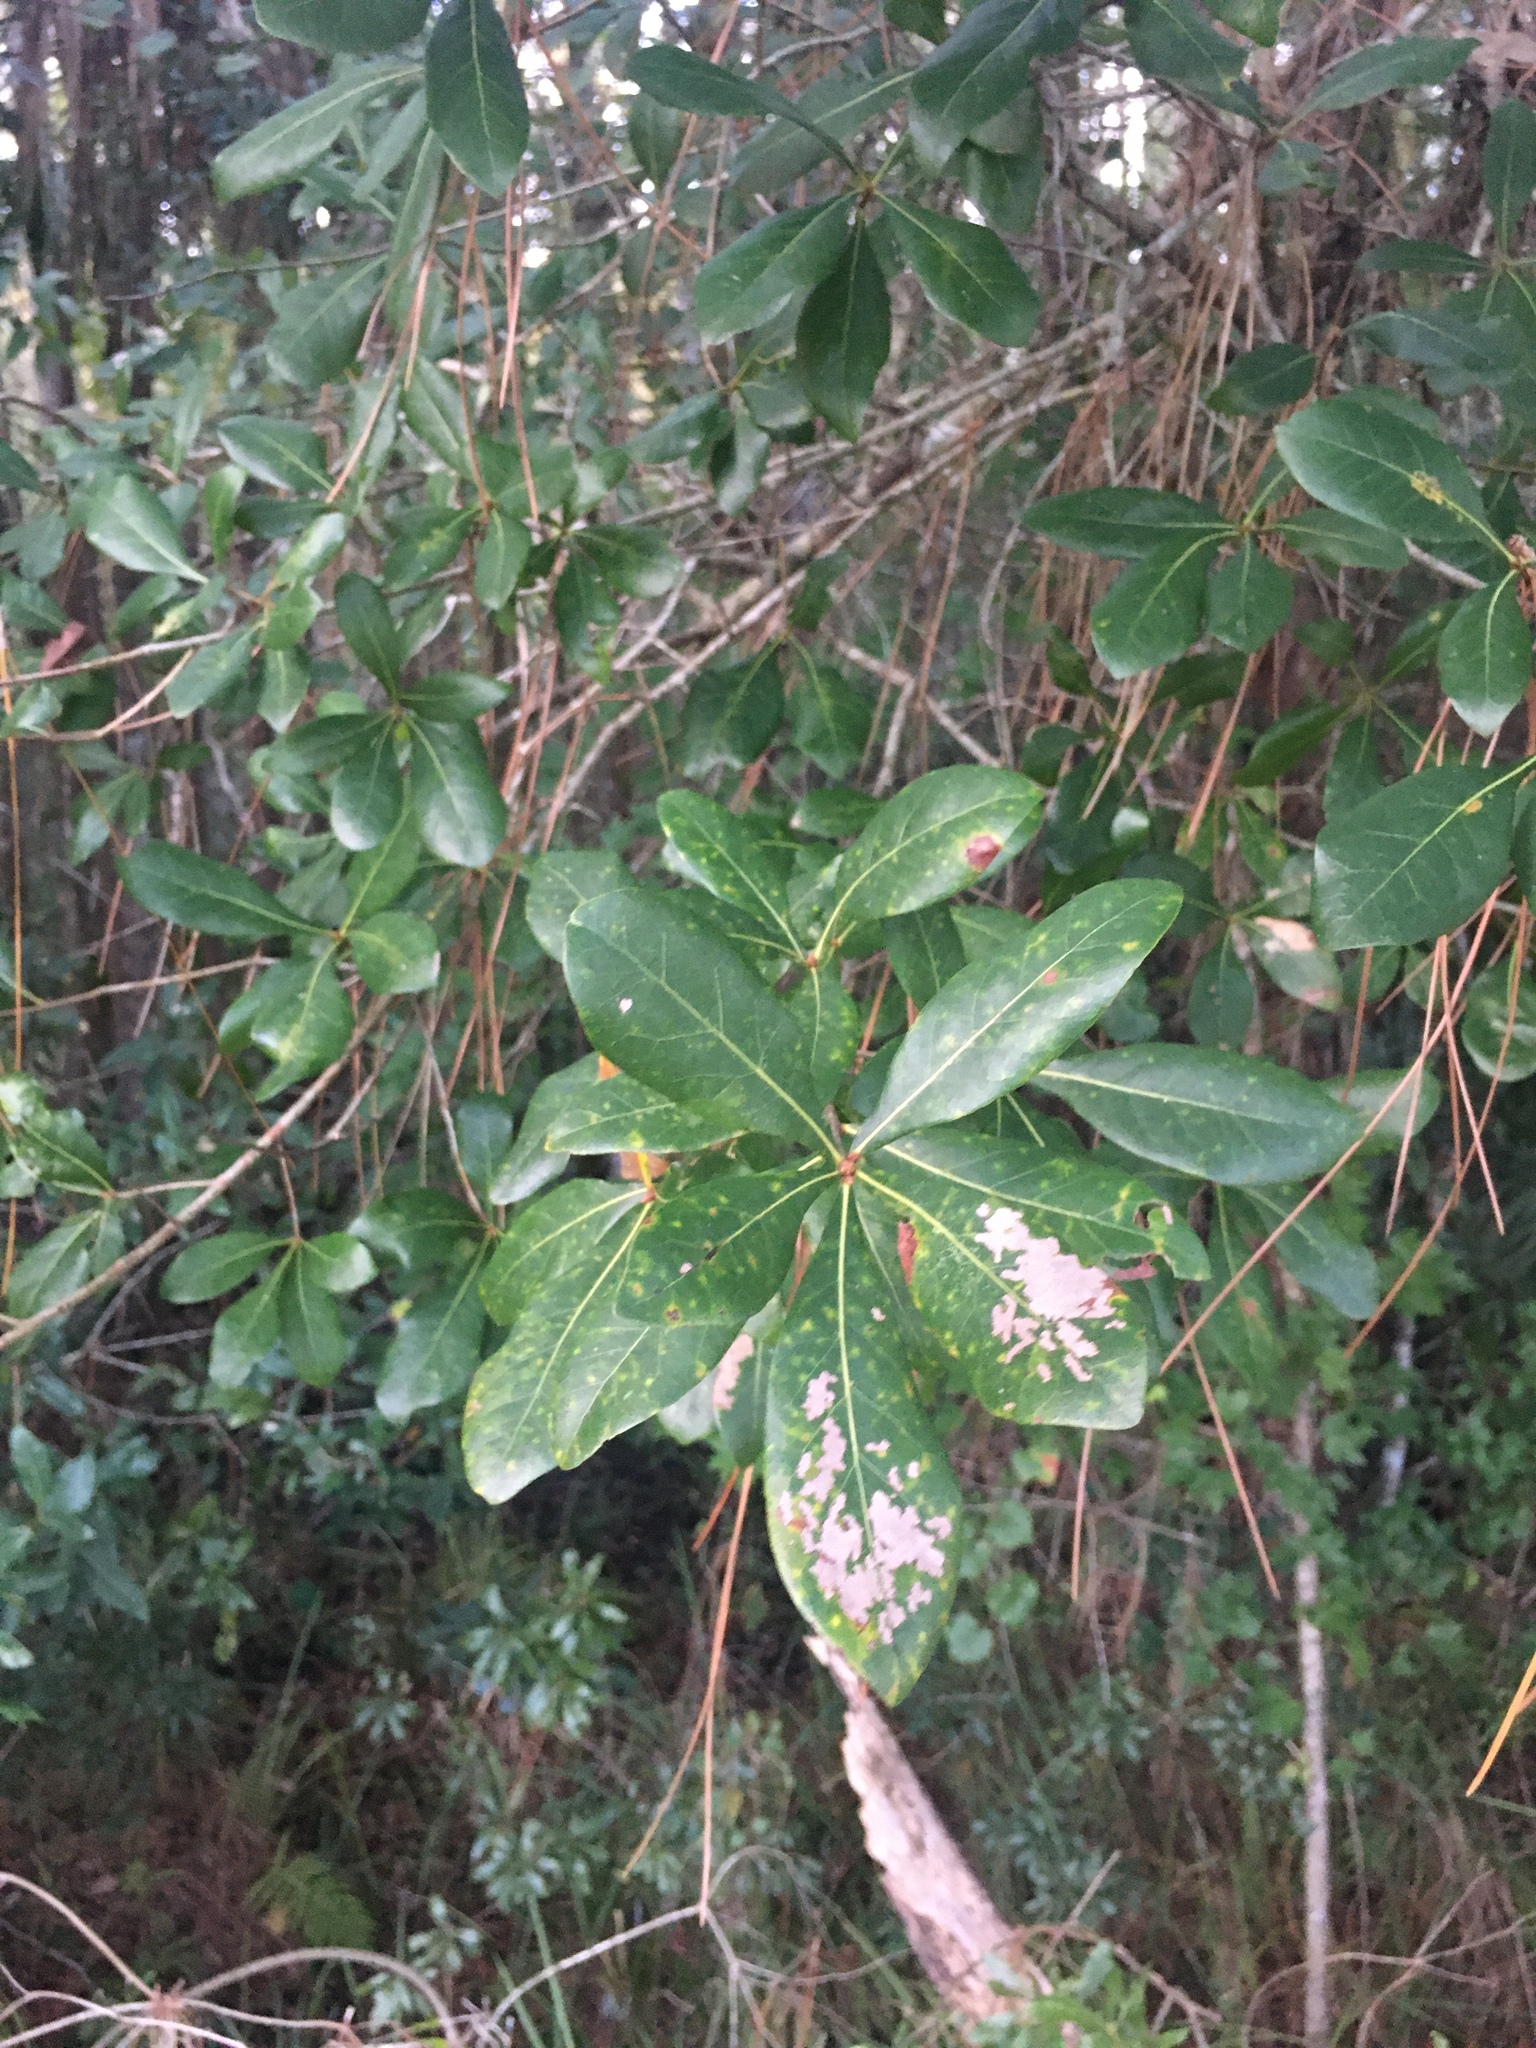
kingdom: Plantae
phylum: Tracheophyta
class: Magnoliopsida
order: Fagales
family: Fagaceae
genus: Quercus
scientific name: Quercus laurifolia
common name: Swamp laurel oak
